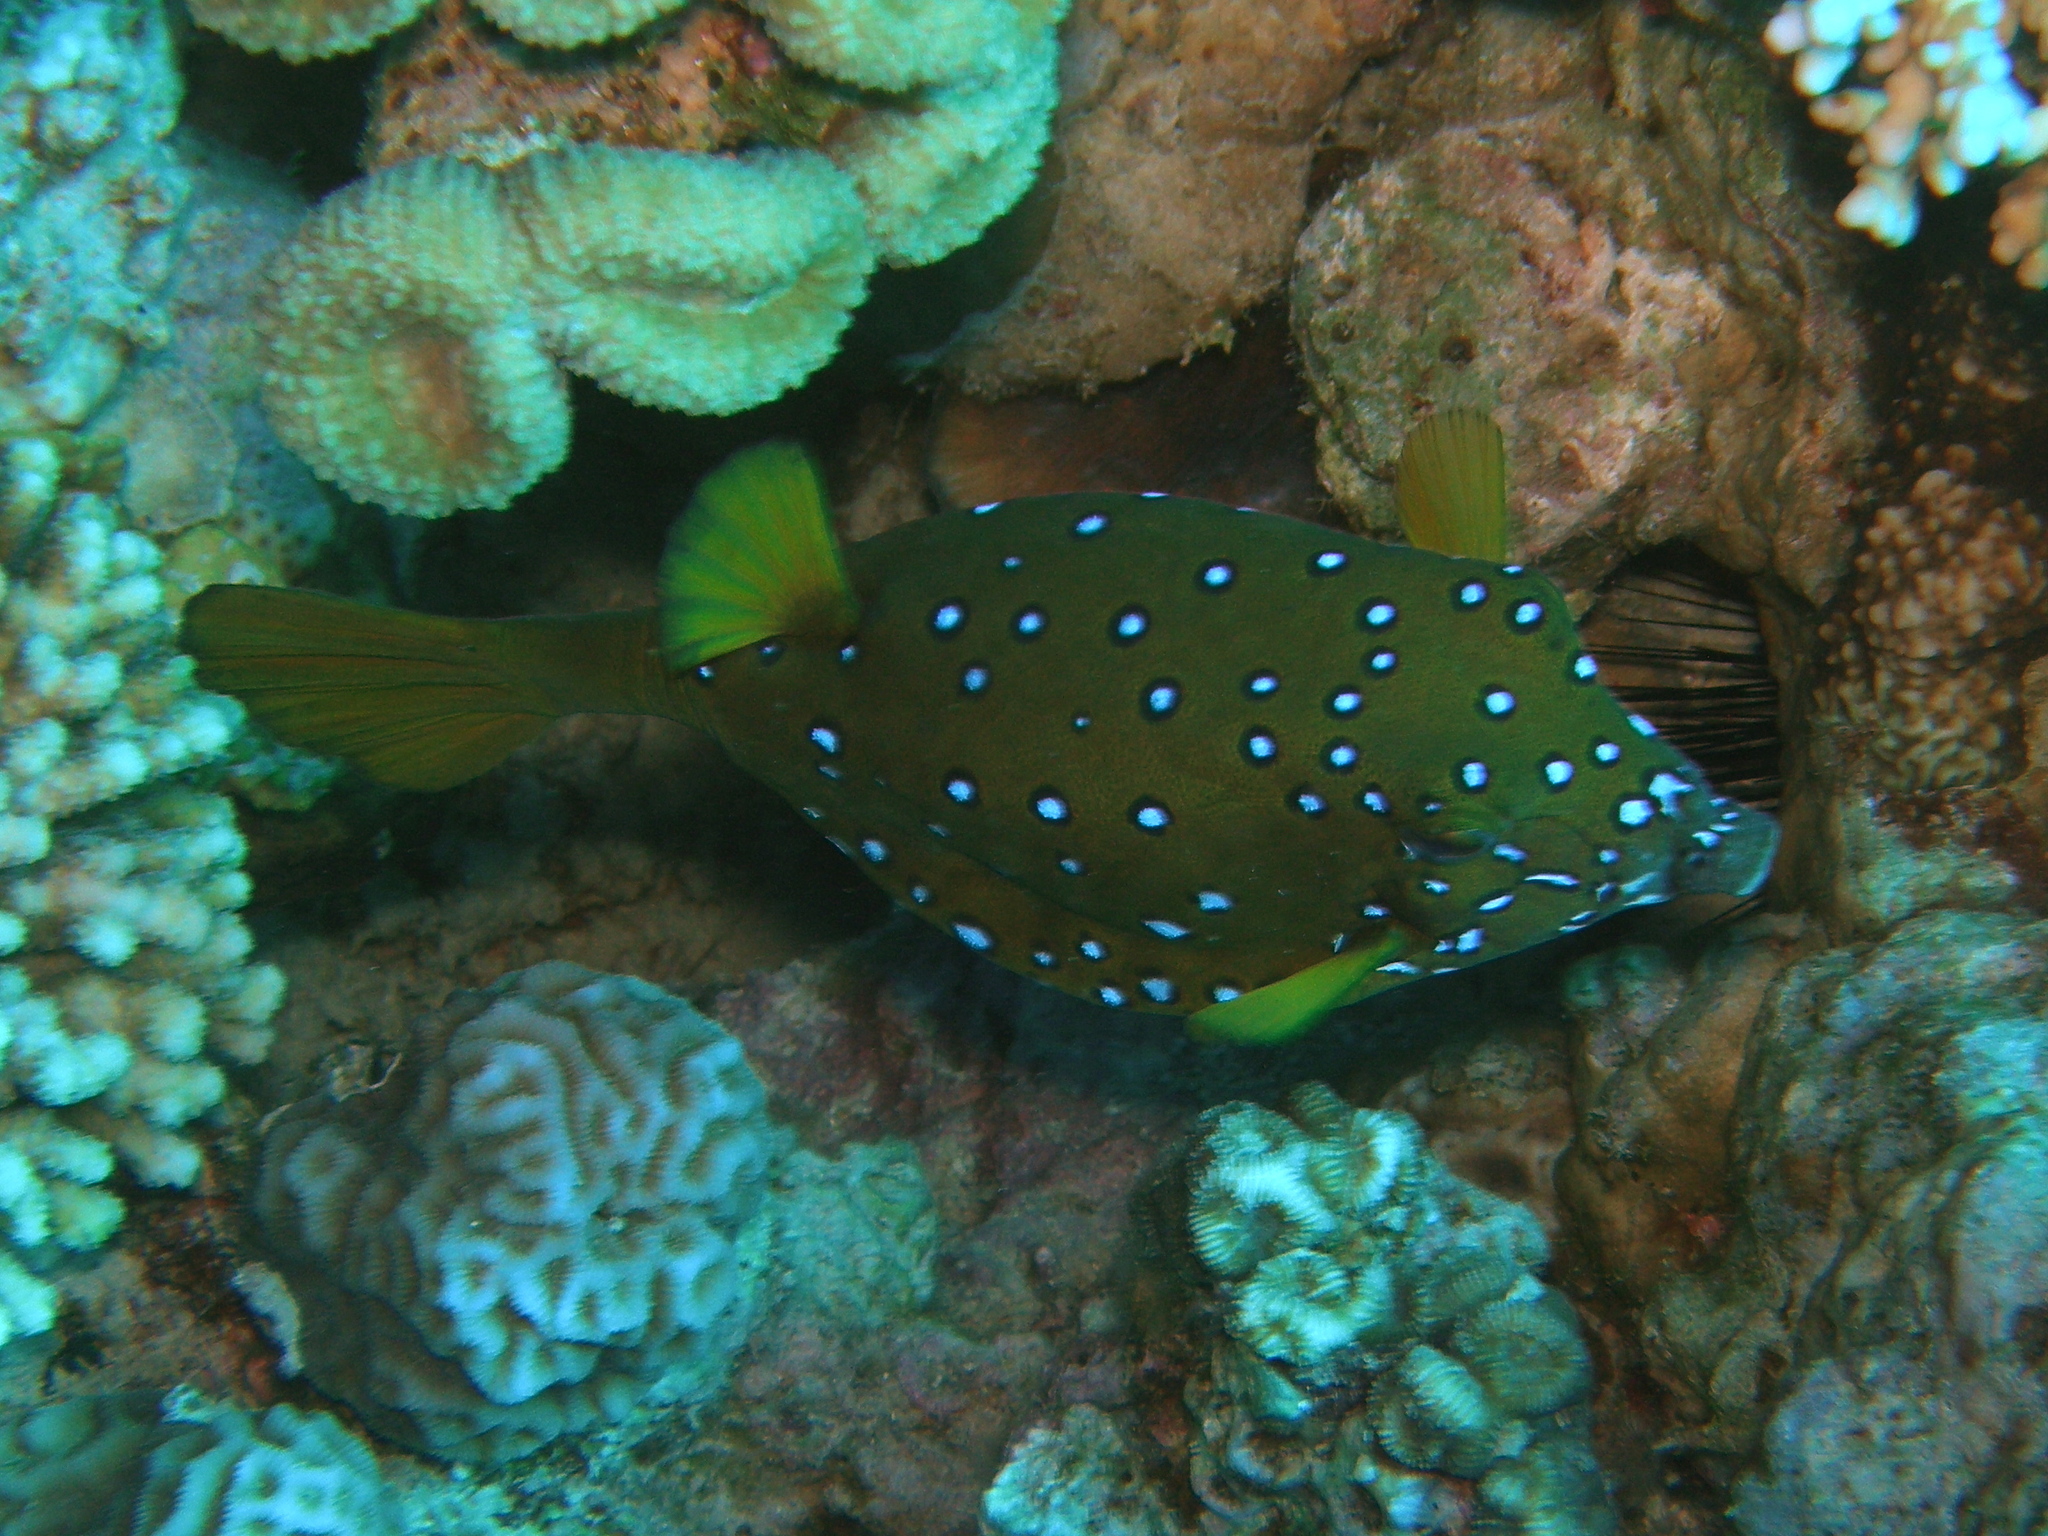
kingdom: Animalia
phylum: Chordata
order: Tetraodontiformes
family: Ostraciidae
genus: Ostracion
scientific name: Ostracion cubicus
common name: Cube trunkfish
